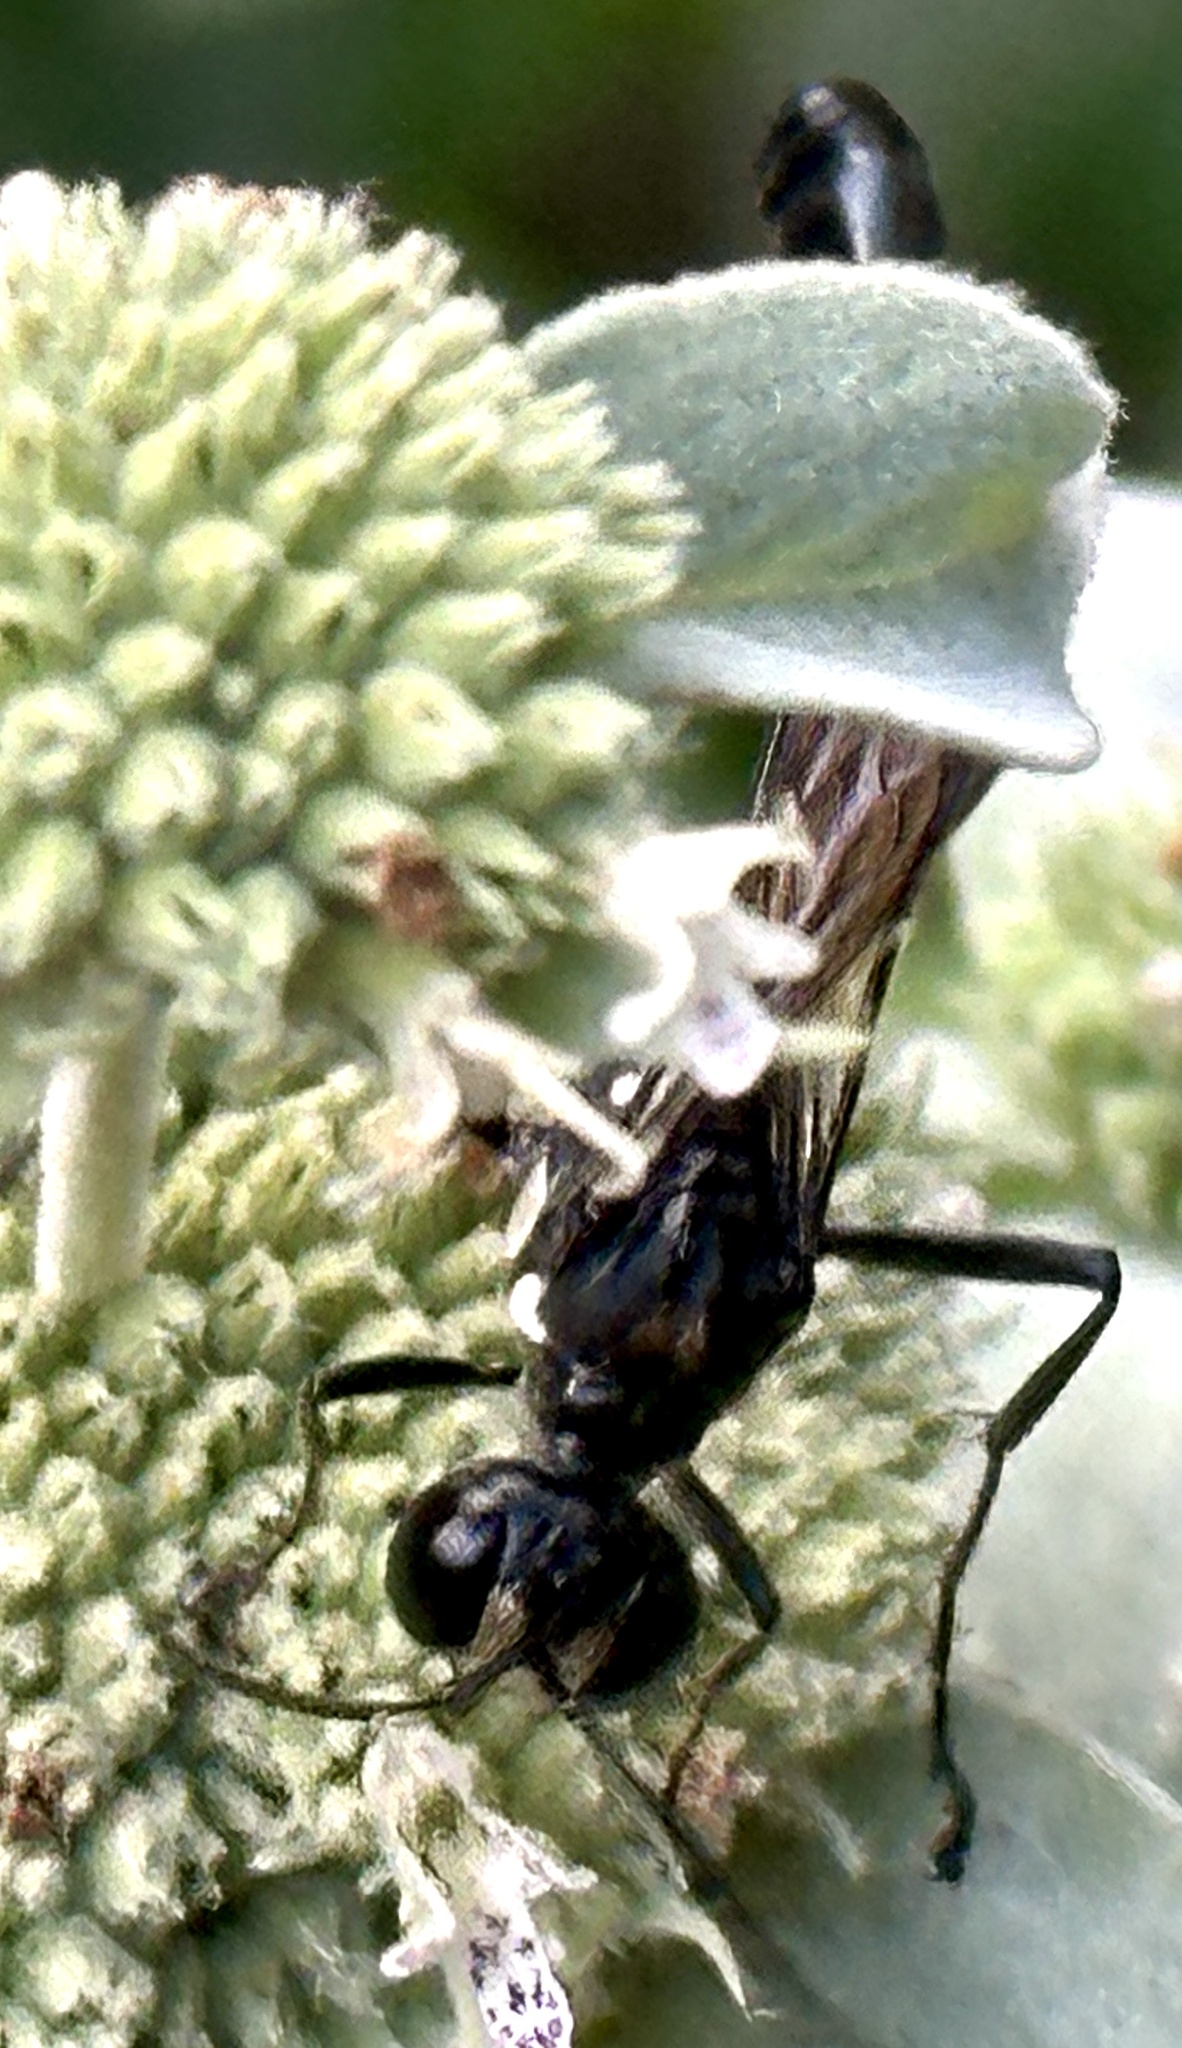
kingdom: Animalia
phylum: Arthropoda
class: Insecta
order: Hymenoptera
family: Sphecidae
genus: Eremnophila
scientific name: Eremnophila aureonotata
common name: Gold-marked thread-waisted wasp
